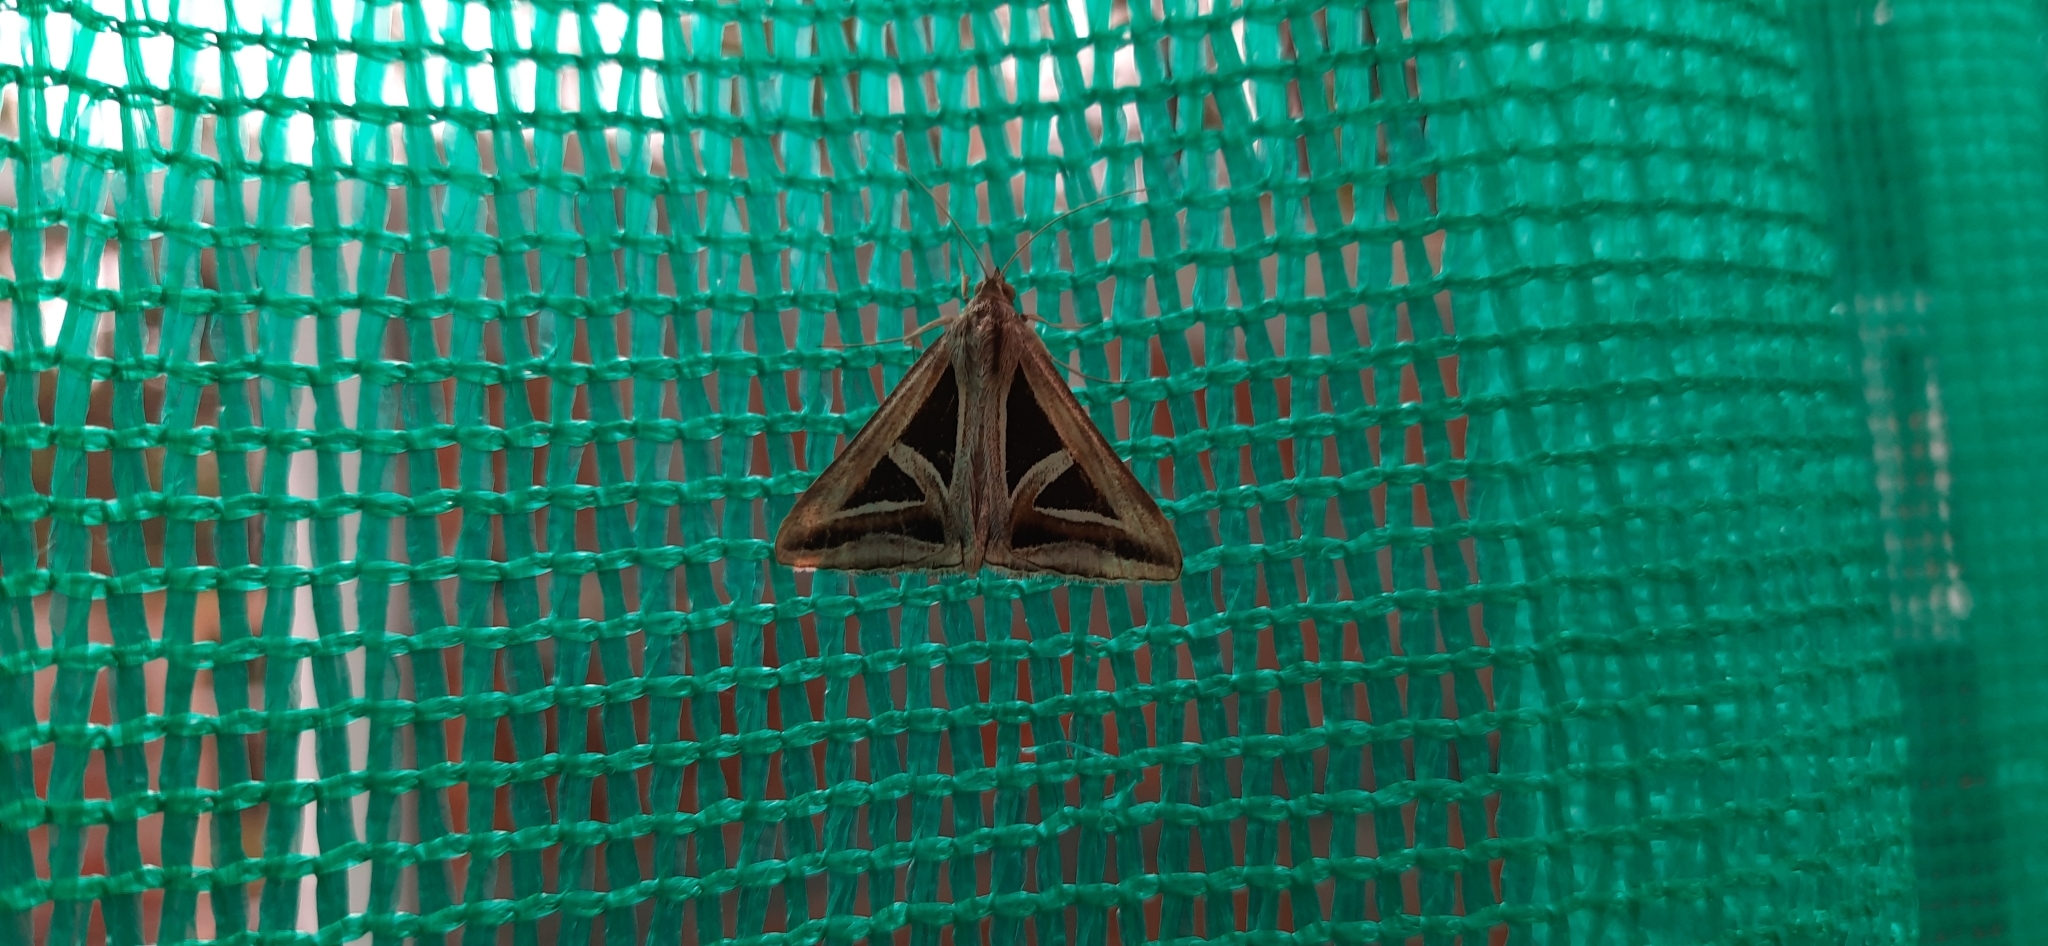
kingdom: Animalia
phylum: Arthropoda
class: Insecta
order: Lepidoptera
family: Erebidae
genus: Trigonodes
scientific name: Trigonodes hyppasia
